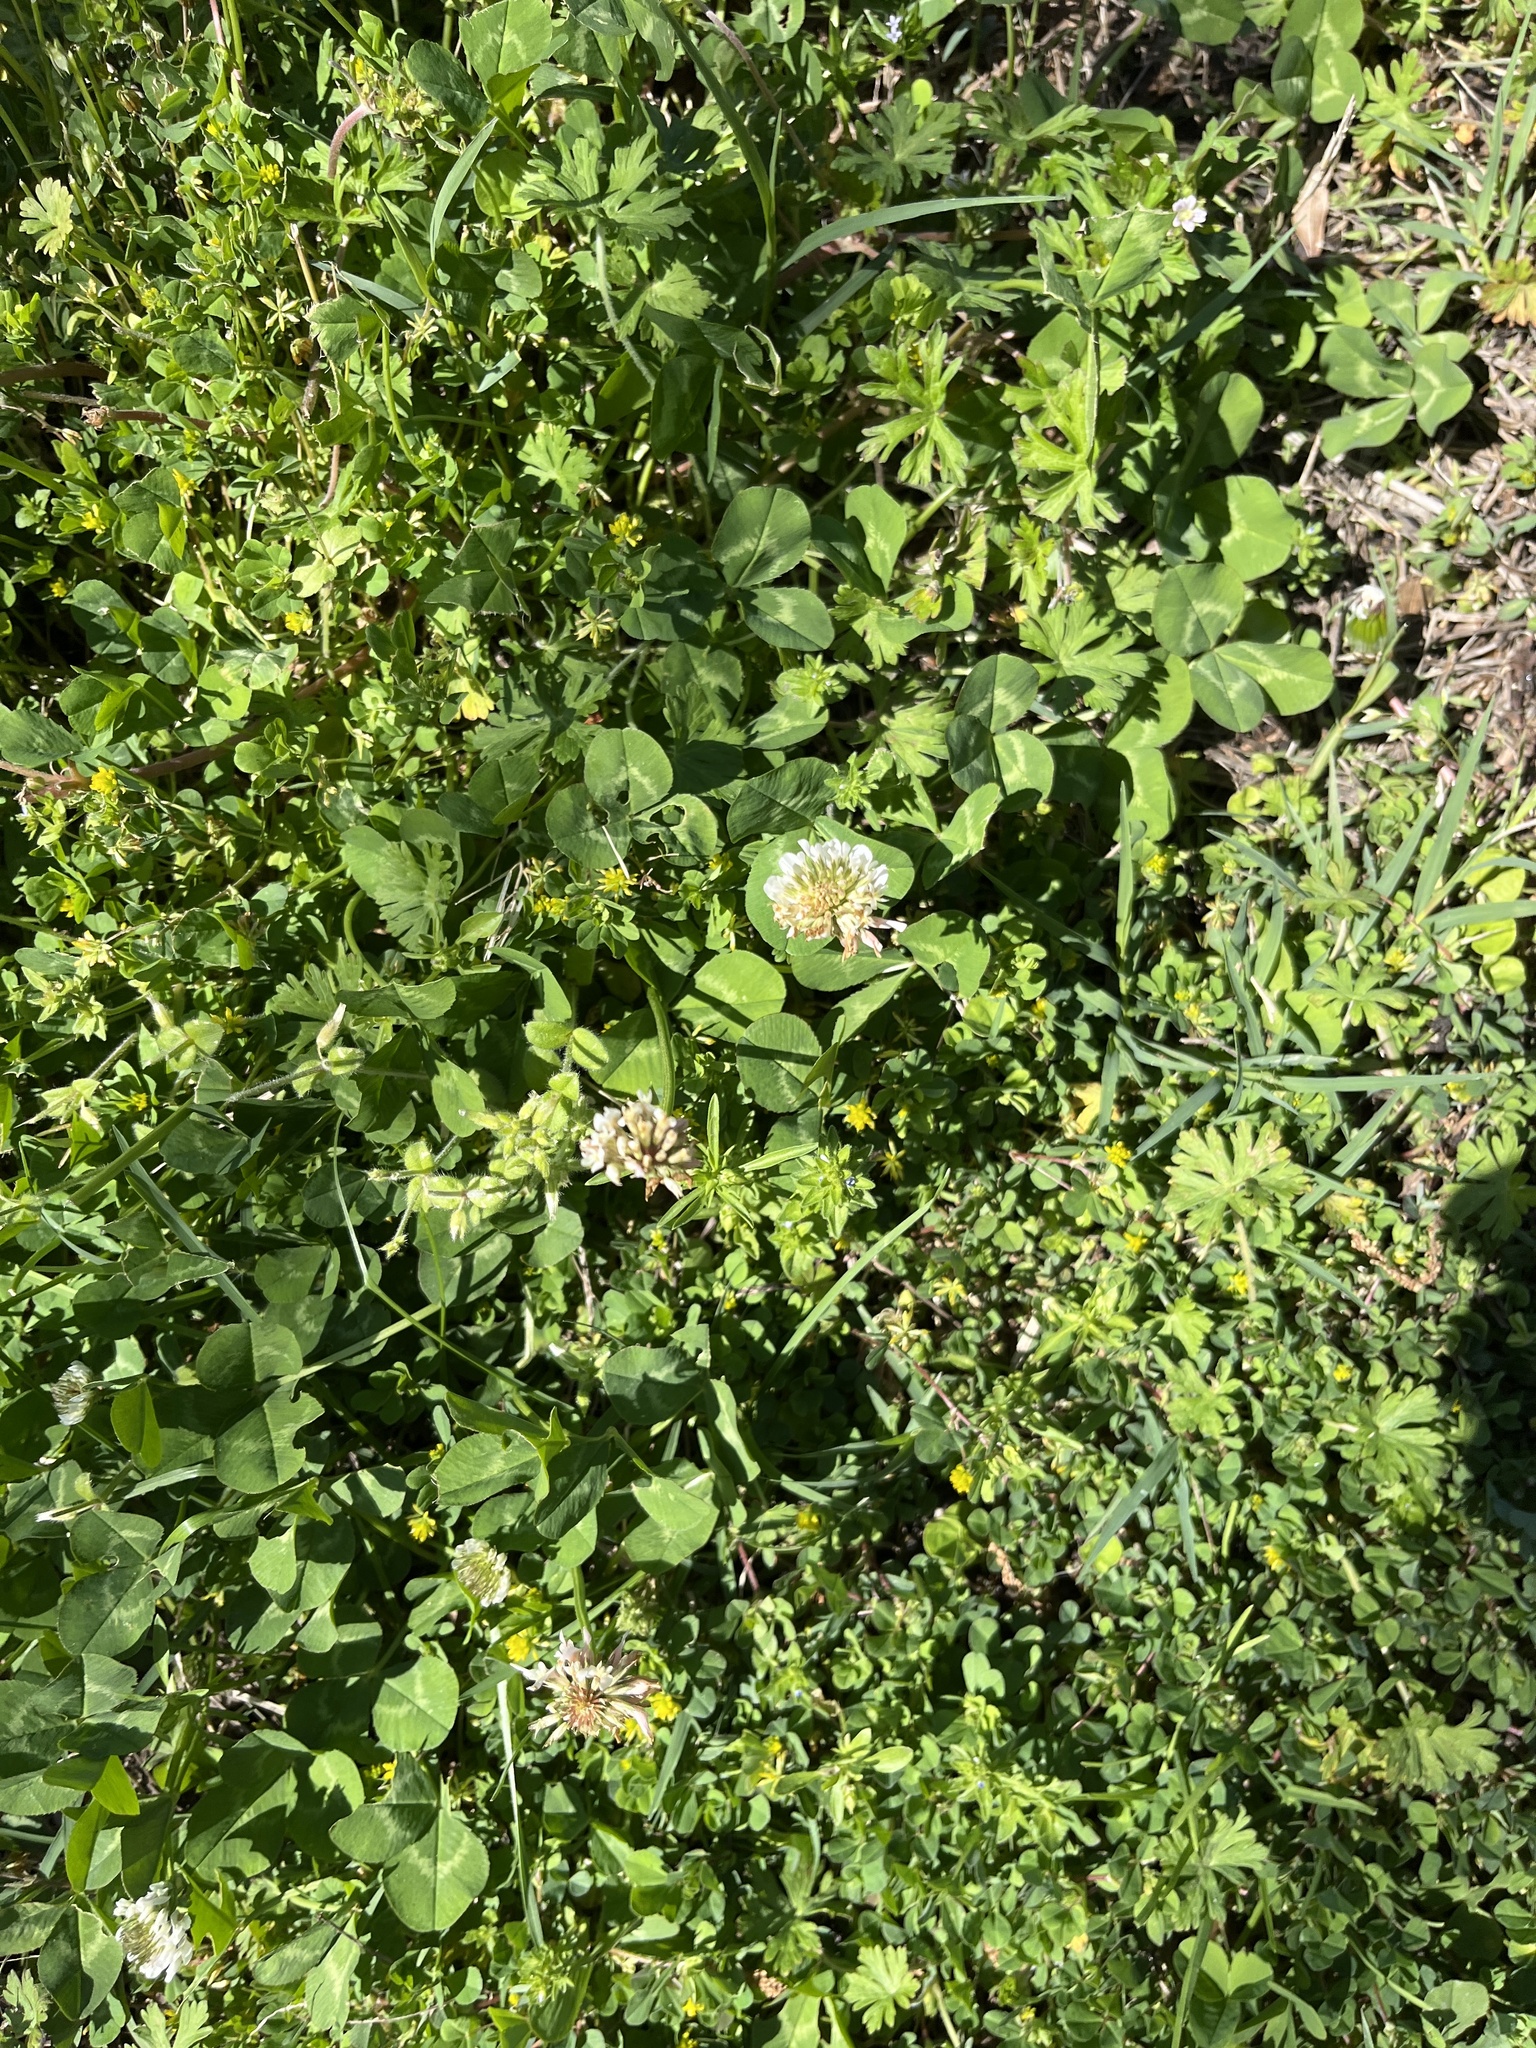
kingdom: Plantae
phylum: Tracheophyta
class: Magnoliopsida
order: Fabales
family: Fabaceae
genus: Trifolium
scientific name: Trifolium repens
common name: White clover
